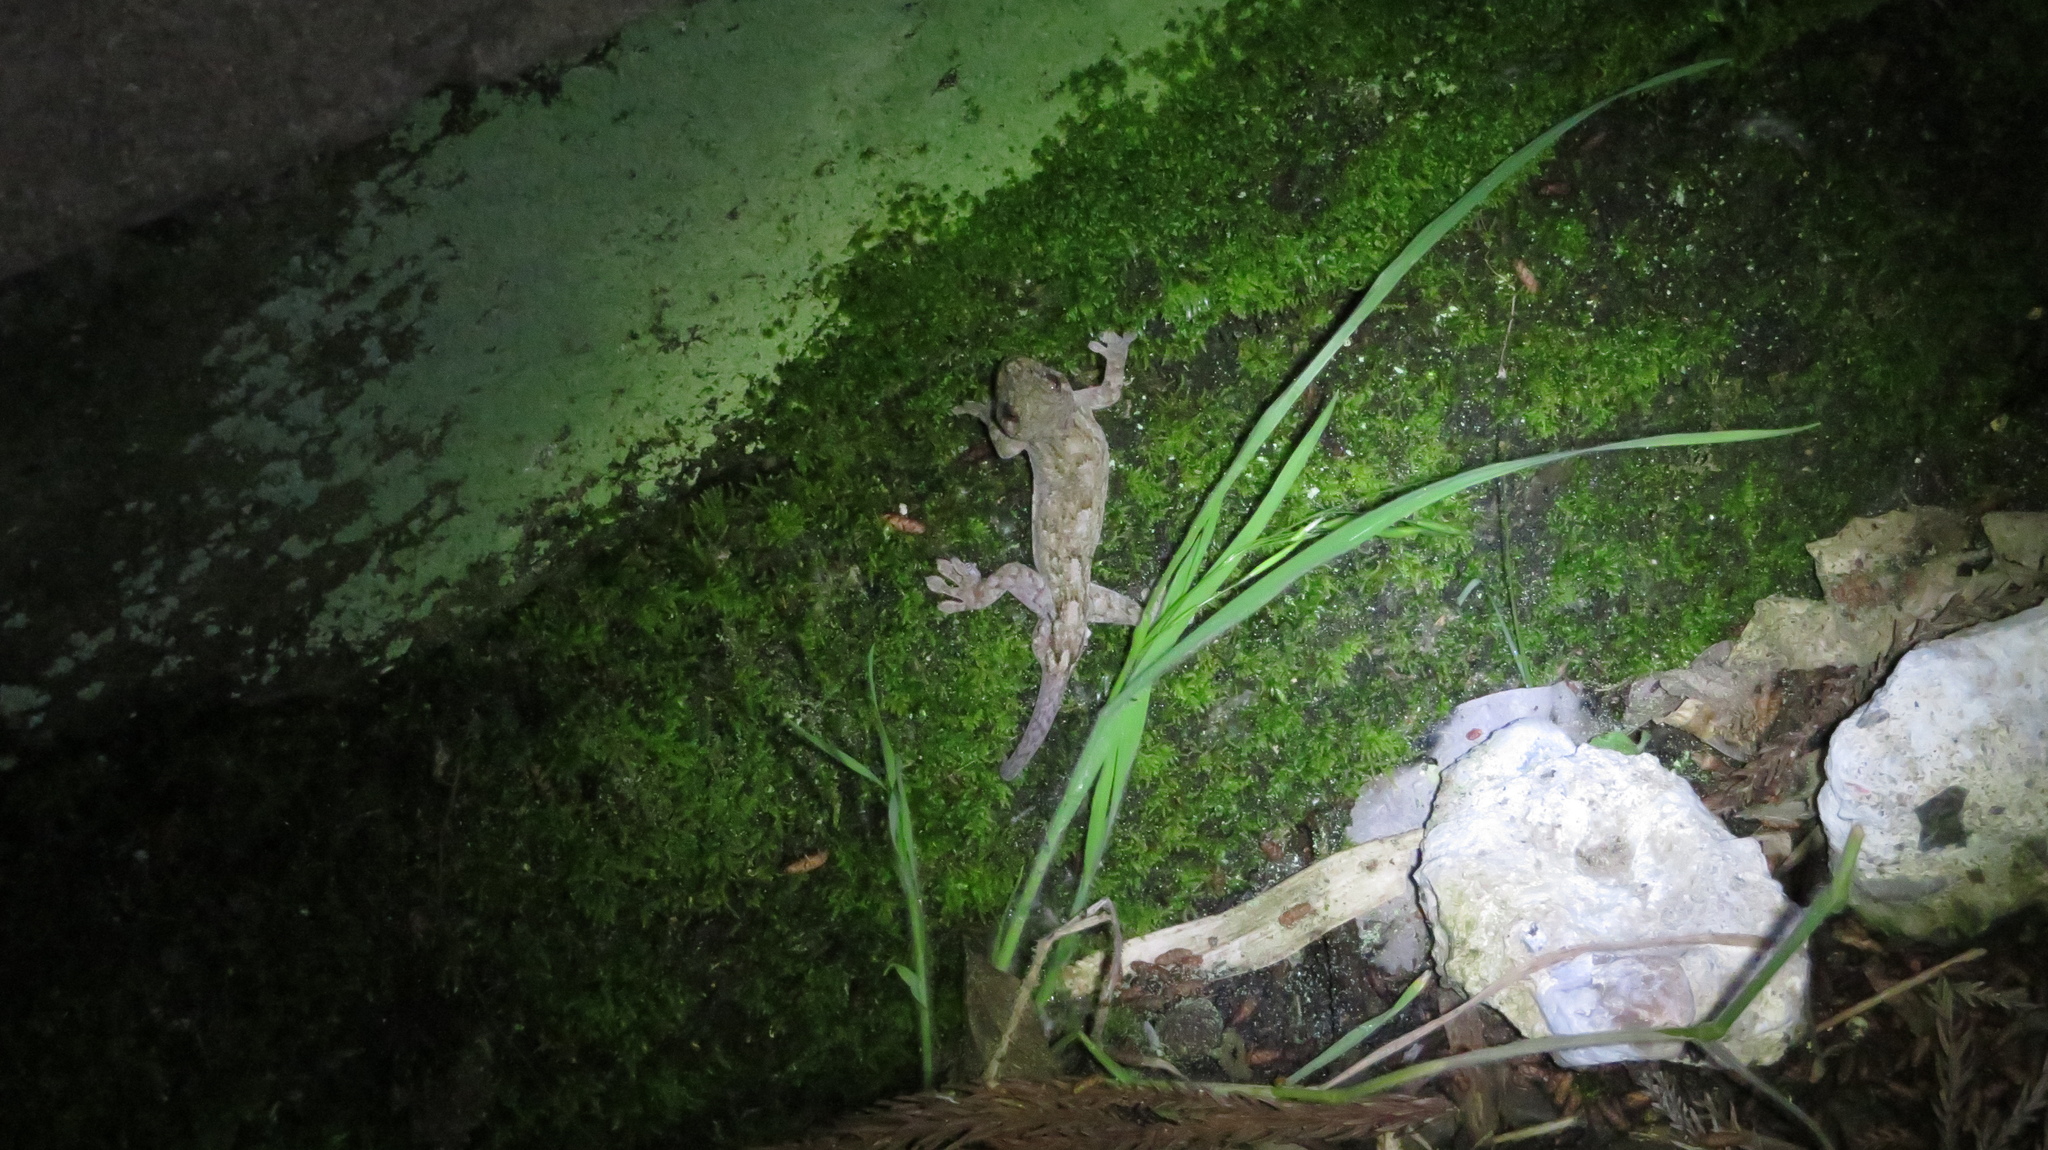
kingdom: Animalia
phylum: Chordata
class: Squamata
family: Gekkonidae
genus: Gekko
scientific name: Gekko japonicus
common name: Schlegel's japanese gecko
